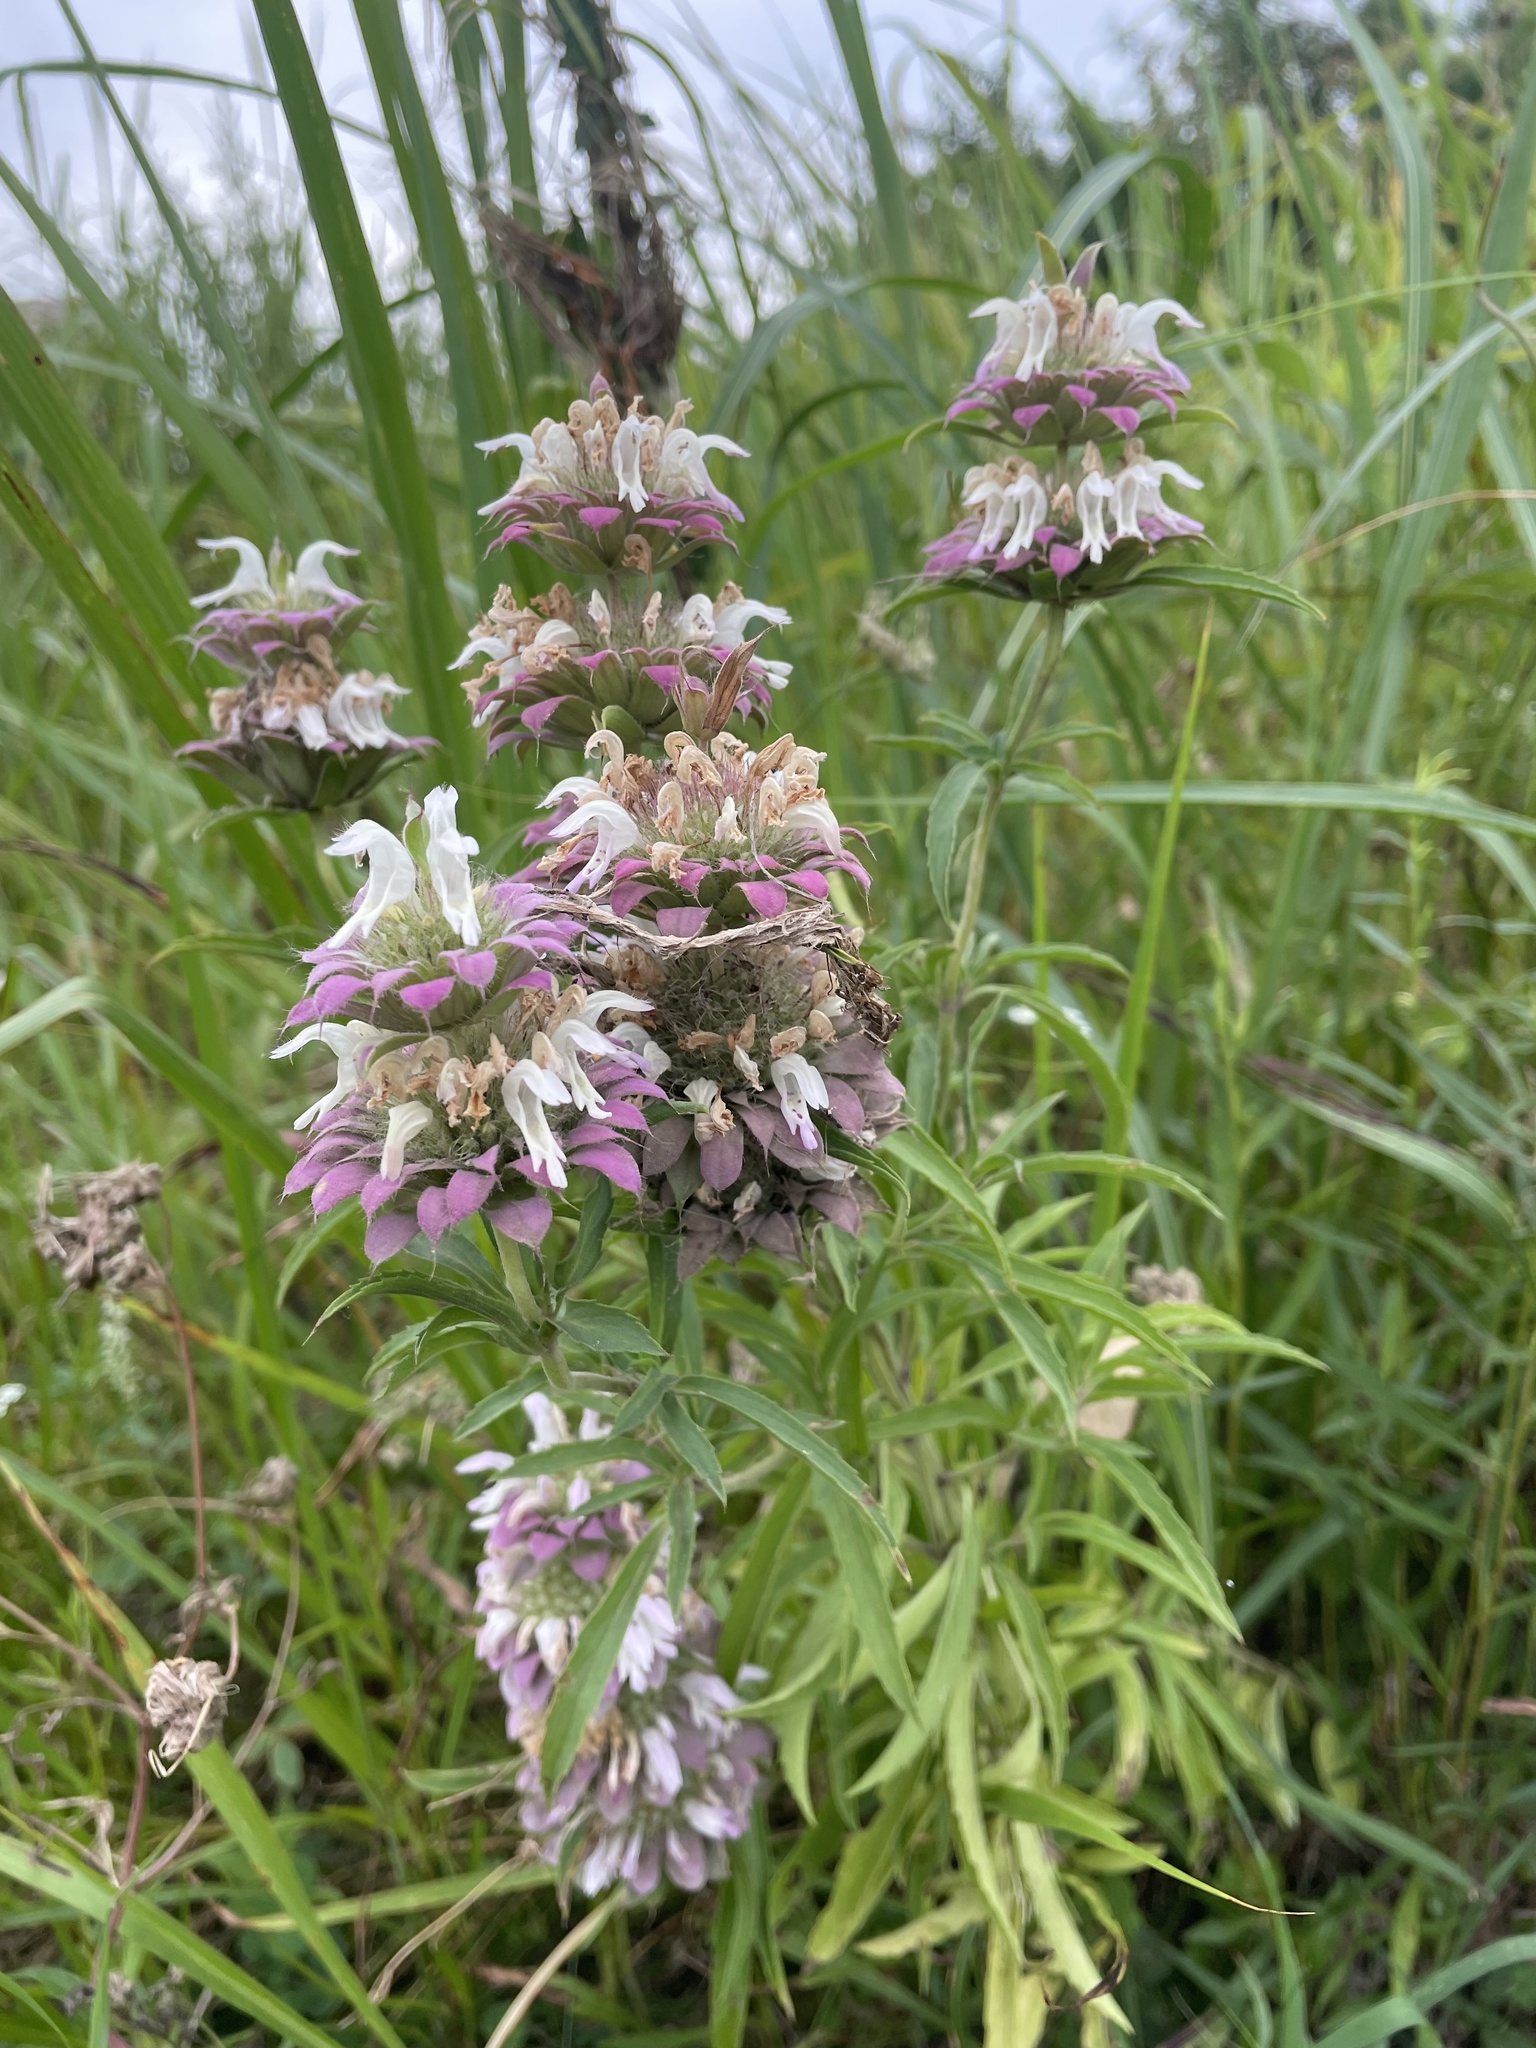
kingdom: Plantae
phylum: Tracheophyta
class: Magnoliopsida
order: Lamiales
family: Lamiaceae
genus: Monarda
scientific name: Monarda citriodora
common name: Lemon beebalm
